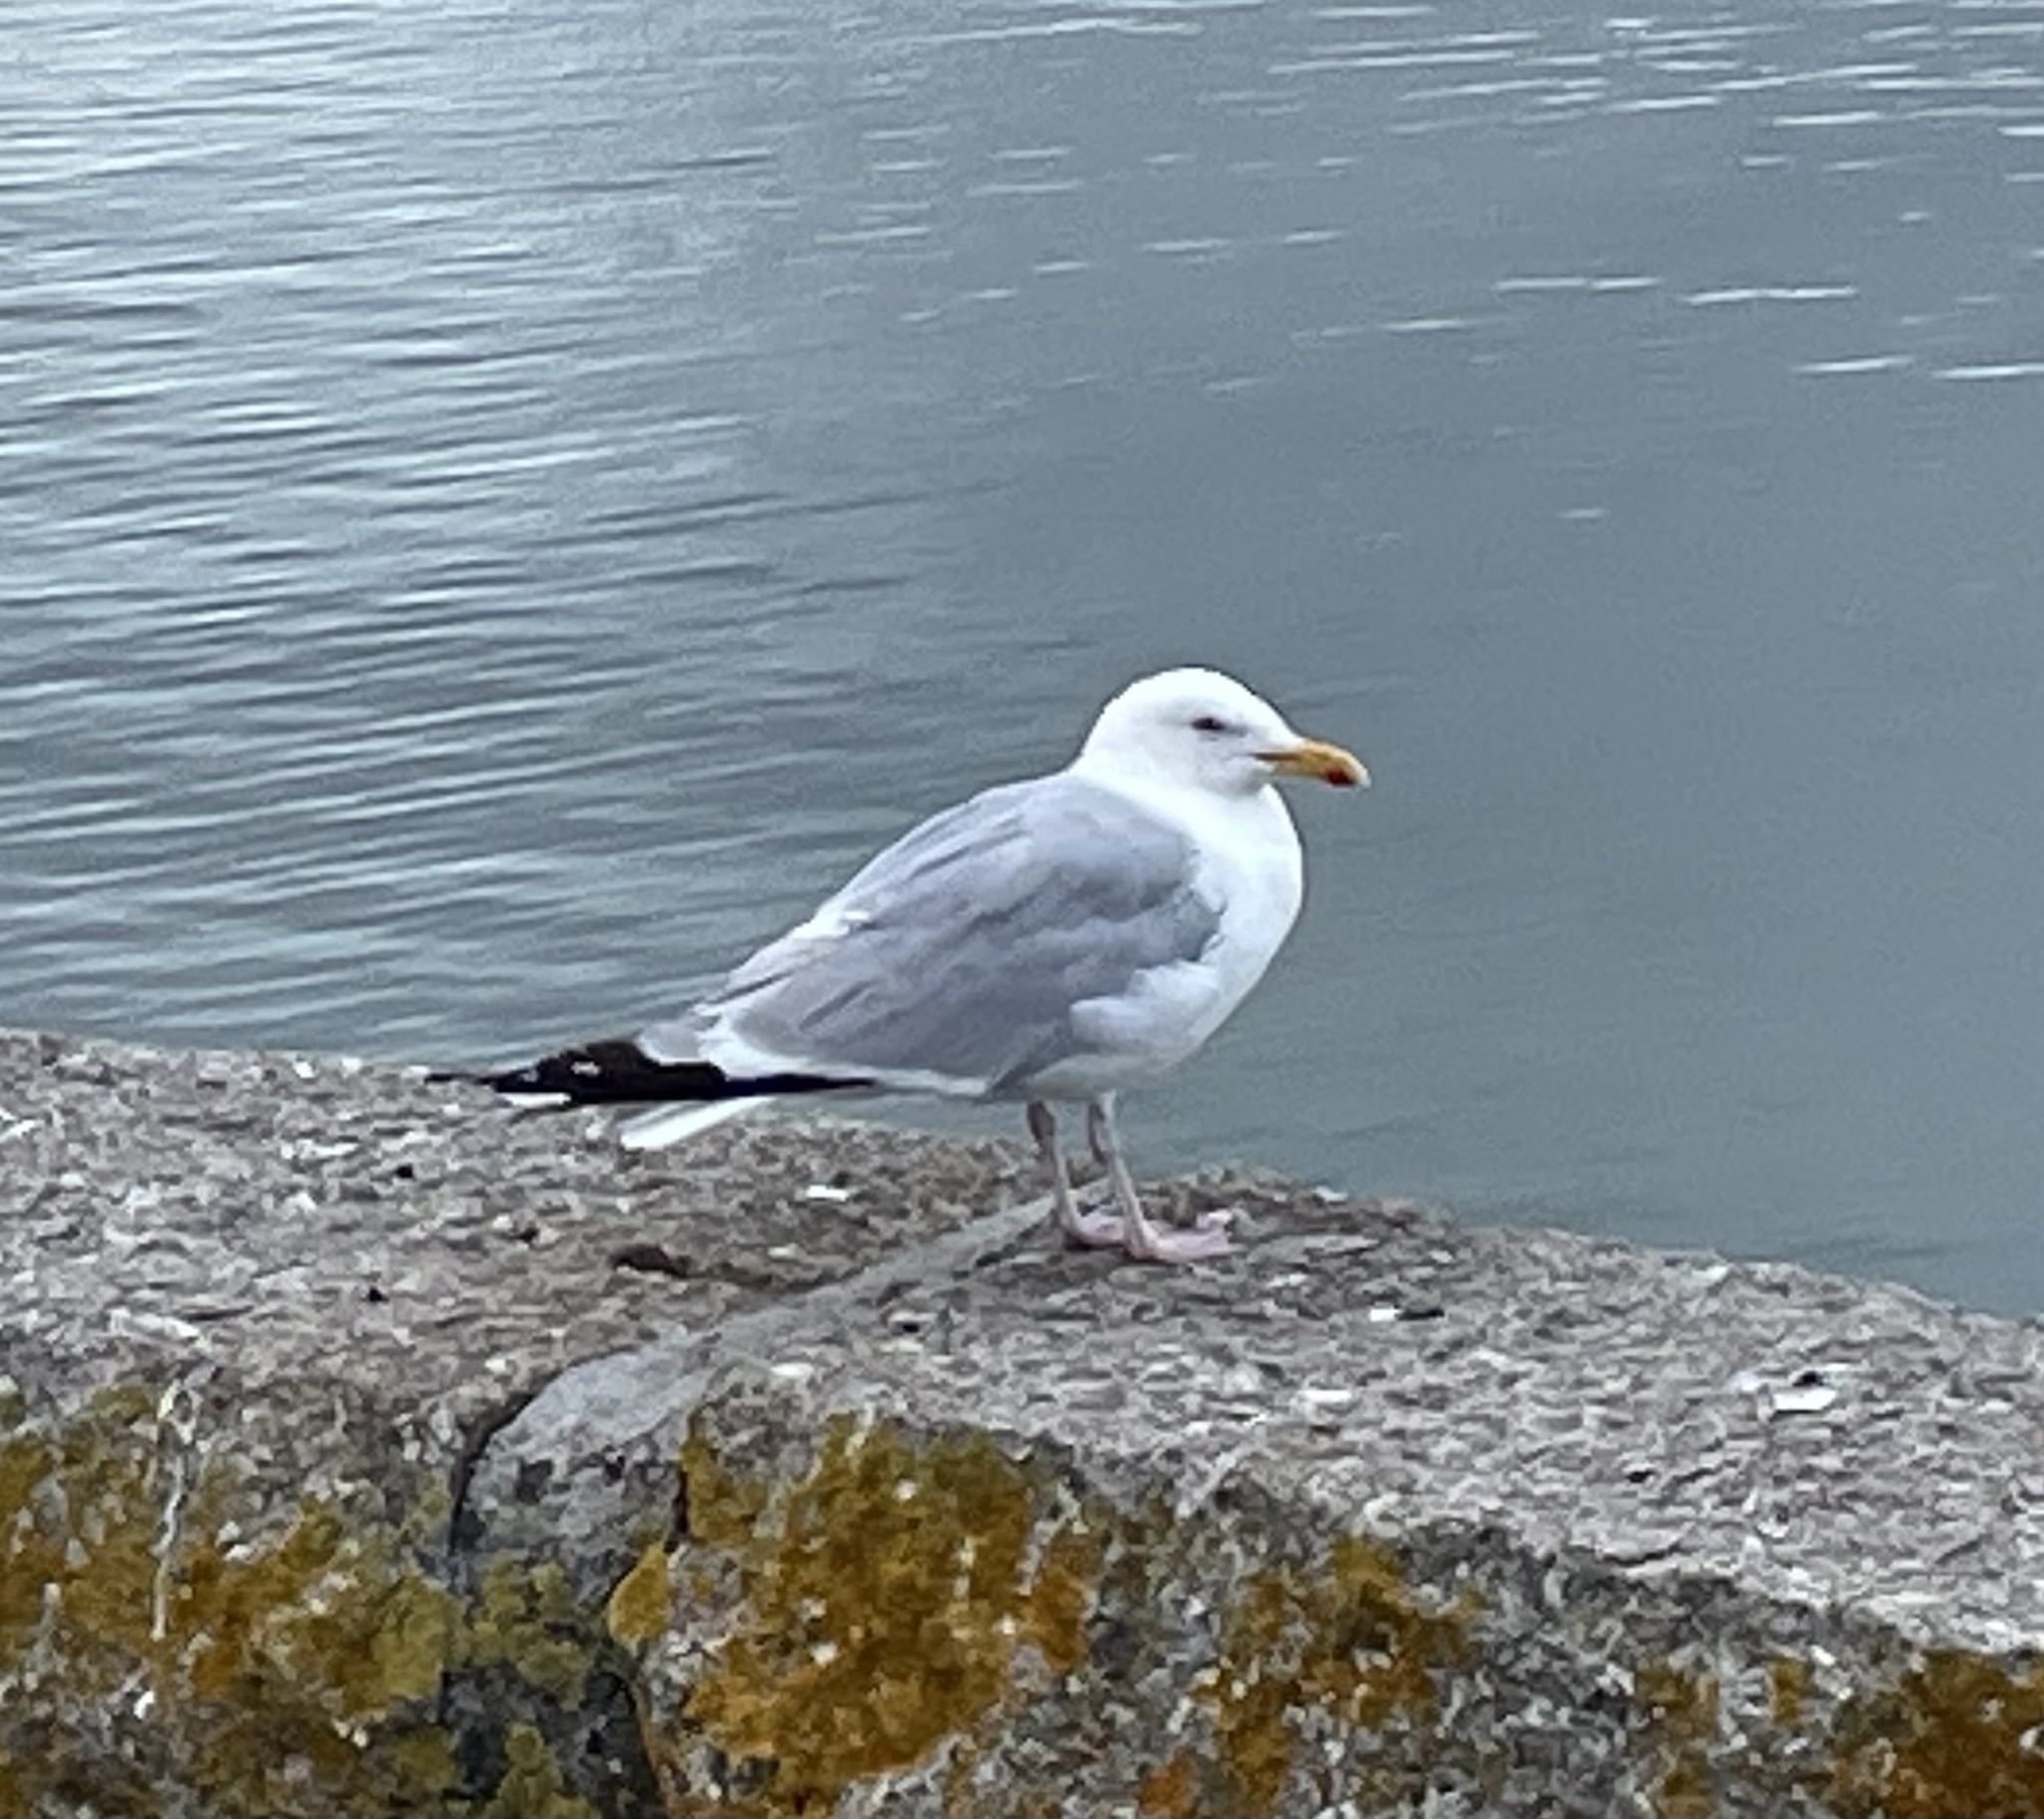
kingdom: Animalia
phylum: Chordata
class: Aves
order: Charadriiformes
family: Laridae
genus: Larus
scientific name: Larus argentatus
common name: Herring gull
